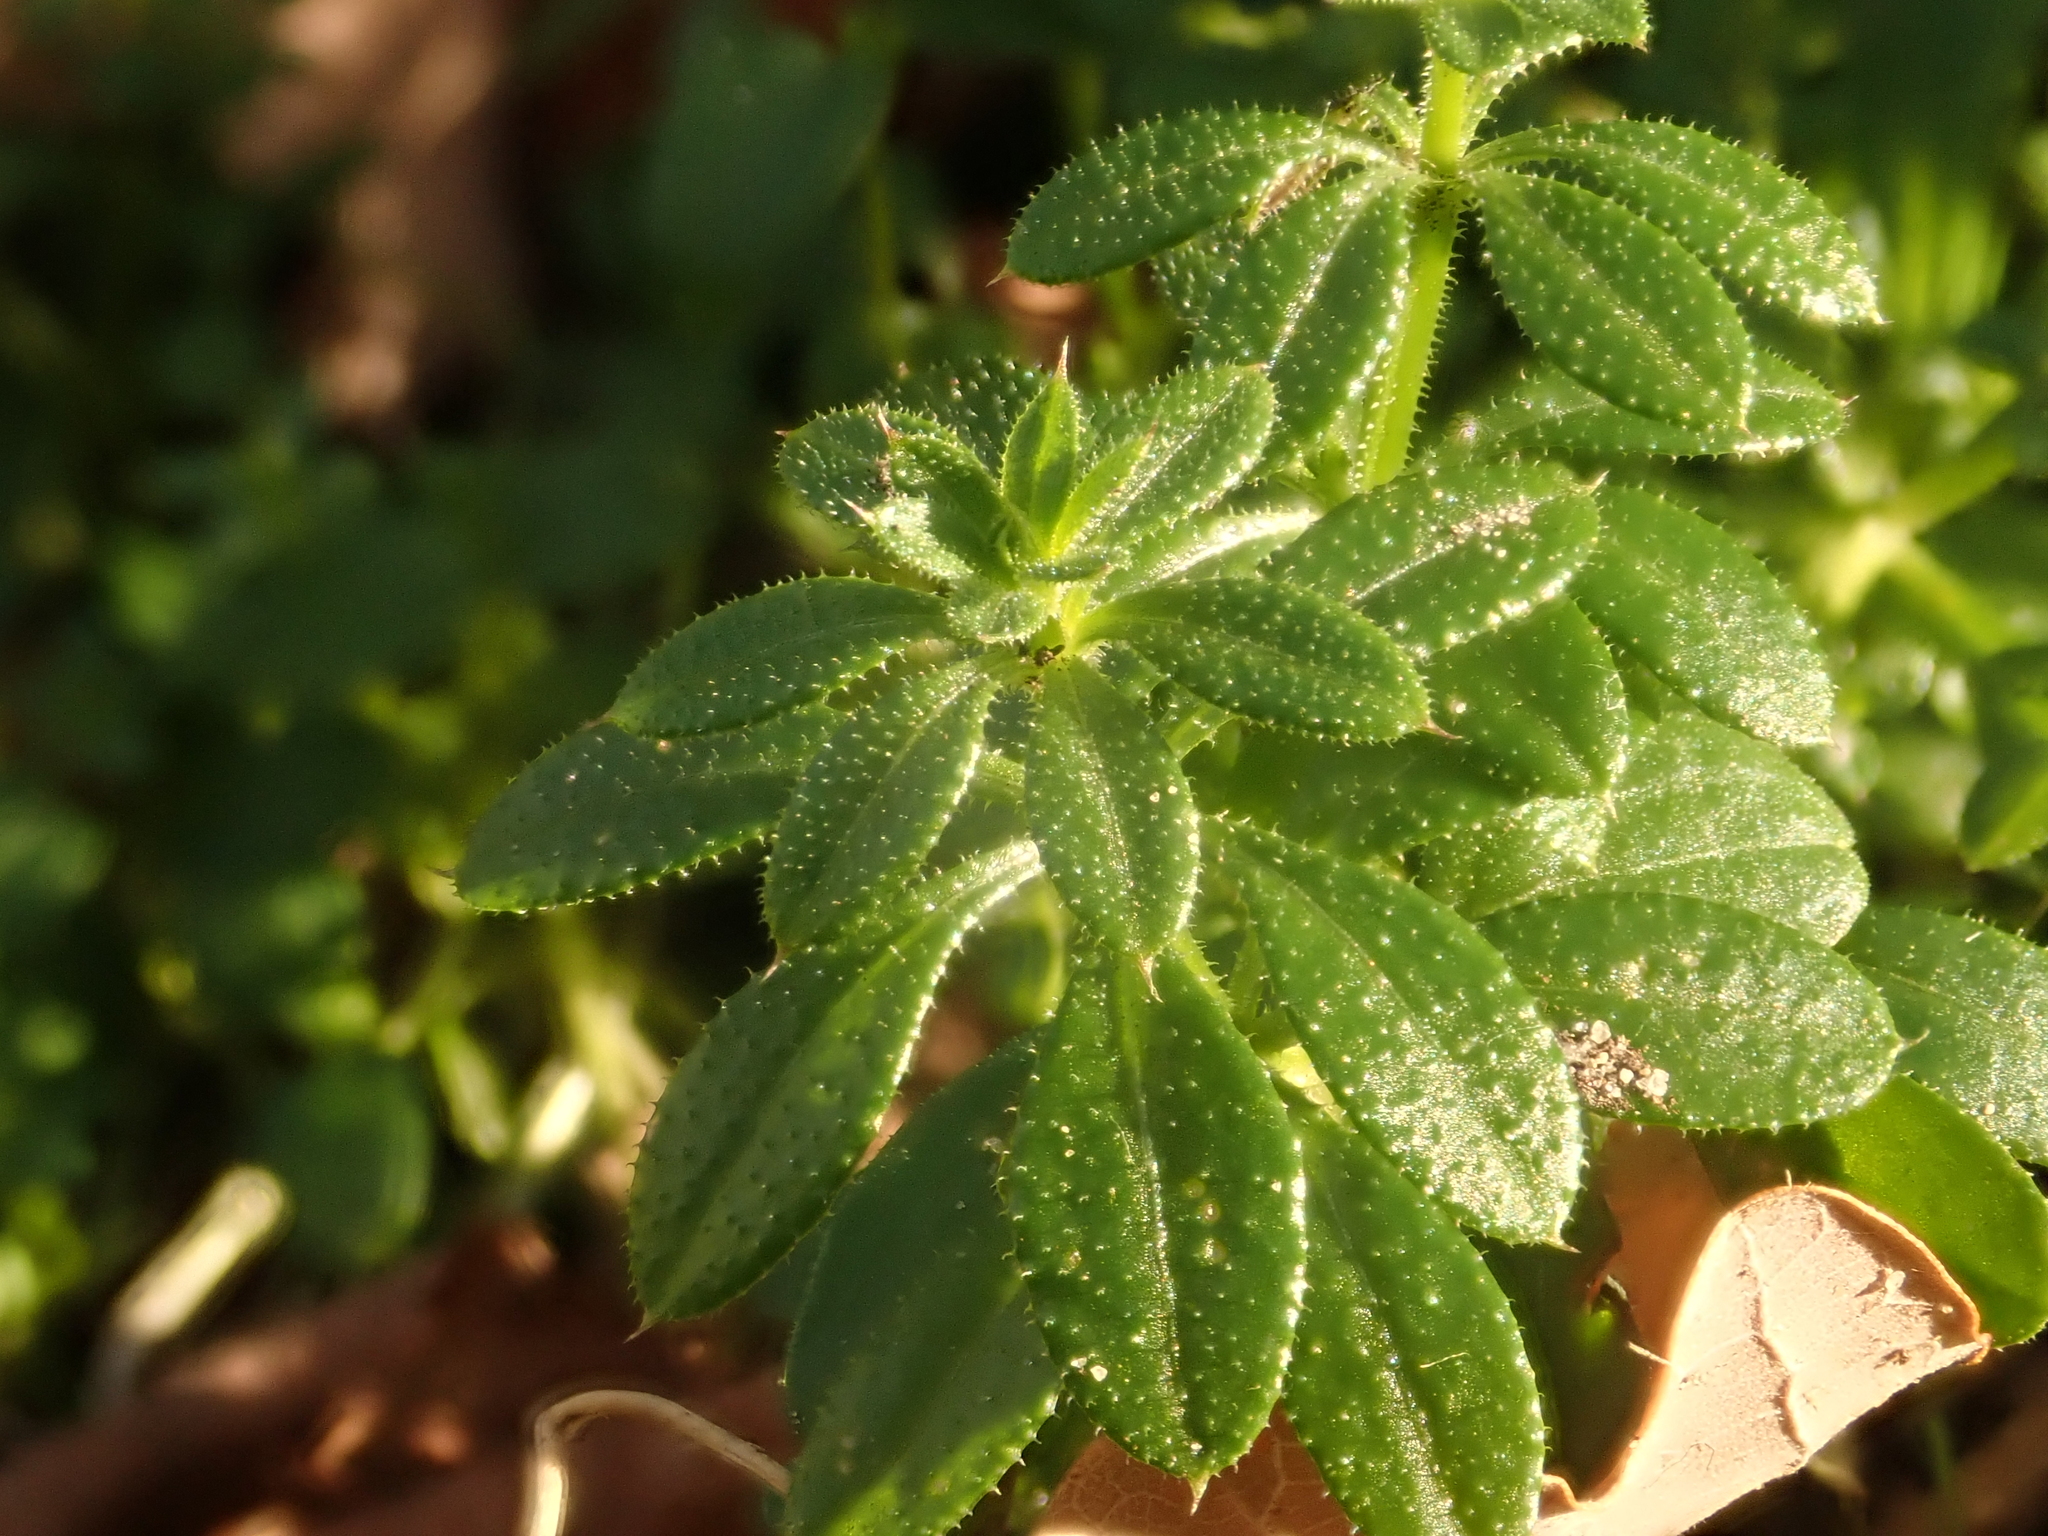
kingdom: Plantae
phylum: Tracheophyta
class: Magnoliopsida
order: Gentianales
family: Rubiaceae
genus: Galium
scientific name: Galium aparine
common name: Cleavers
